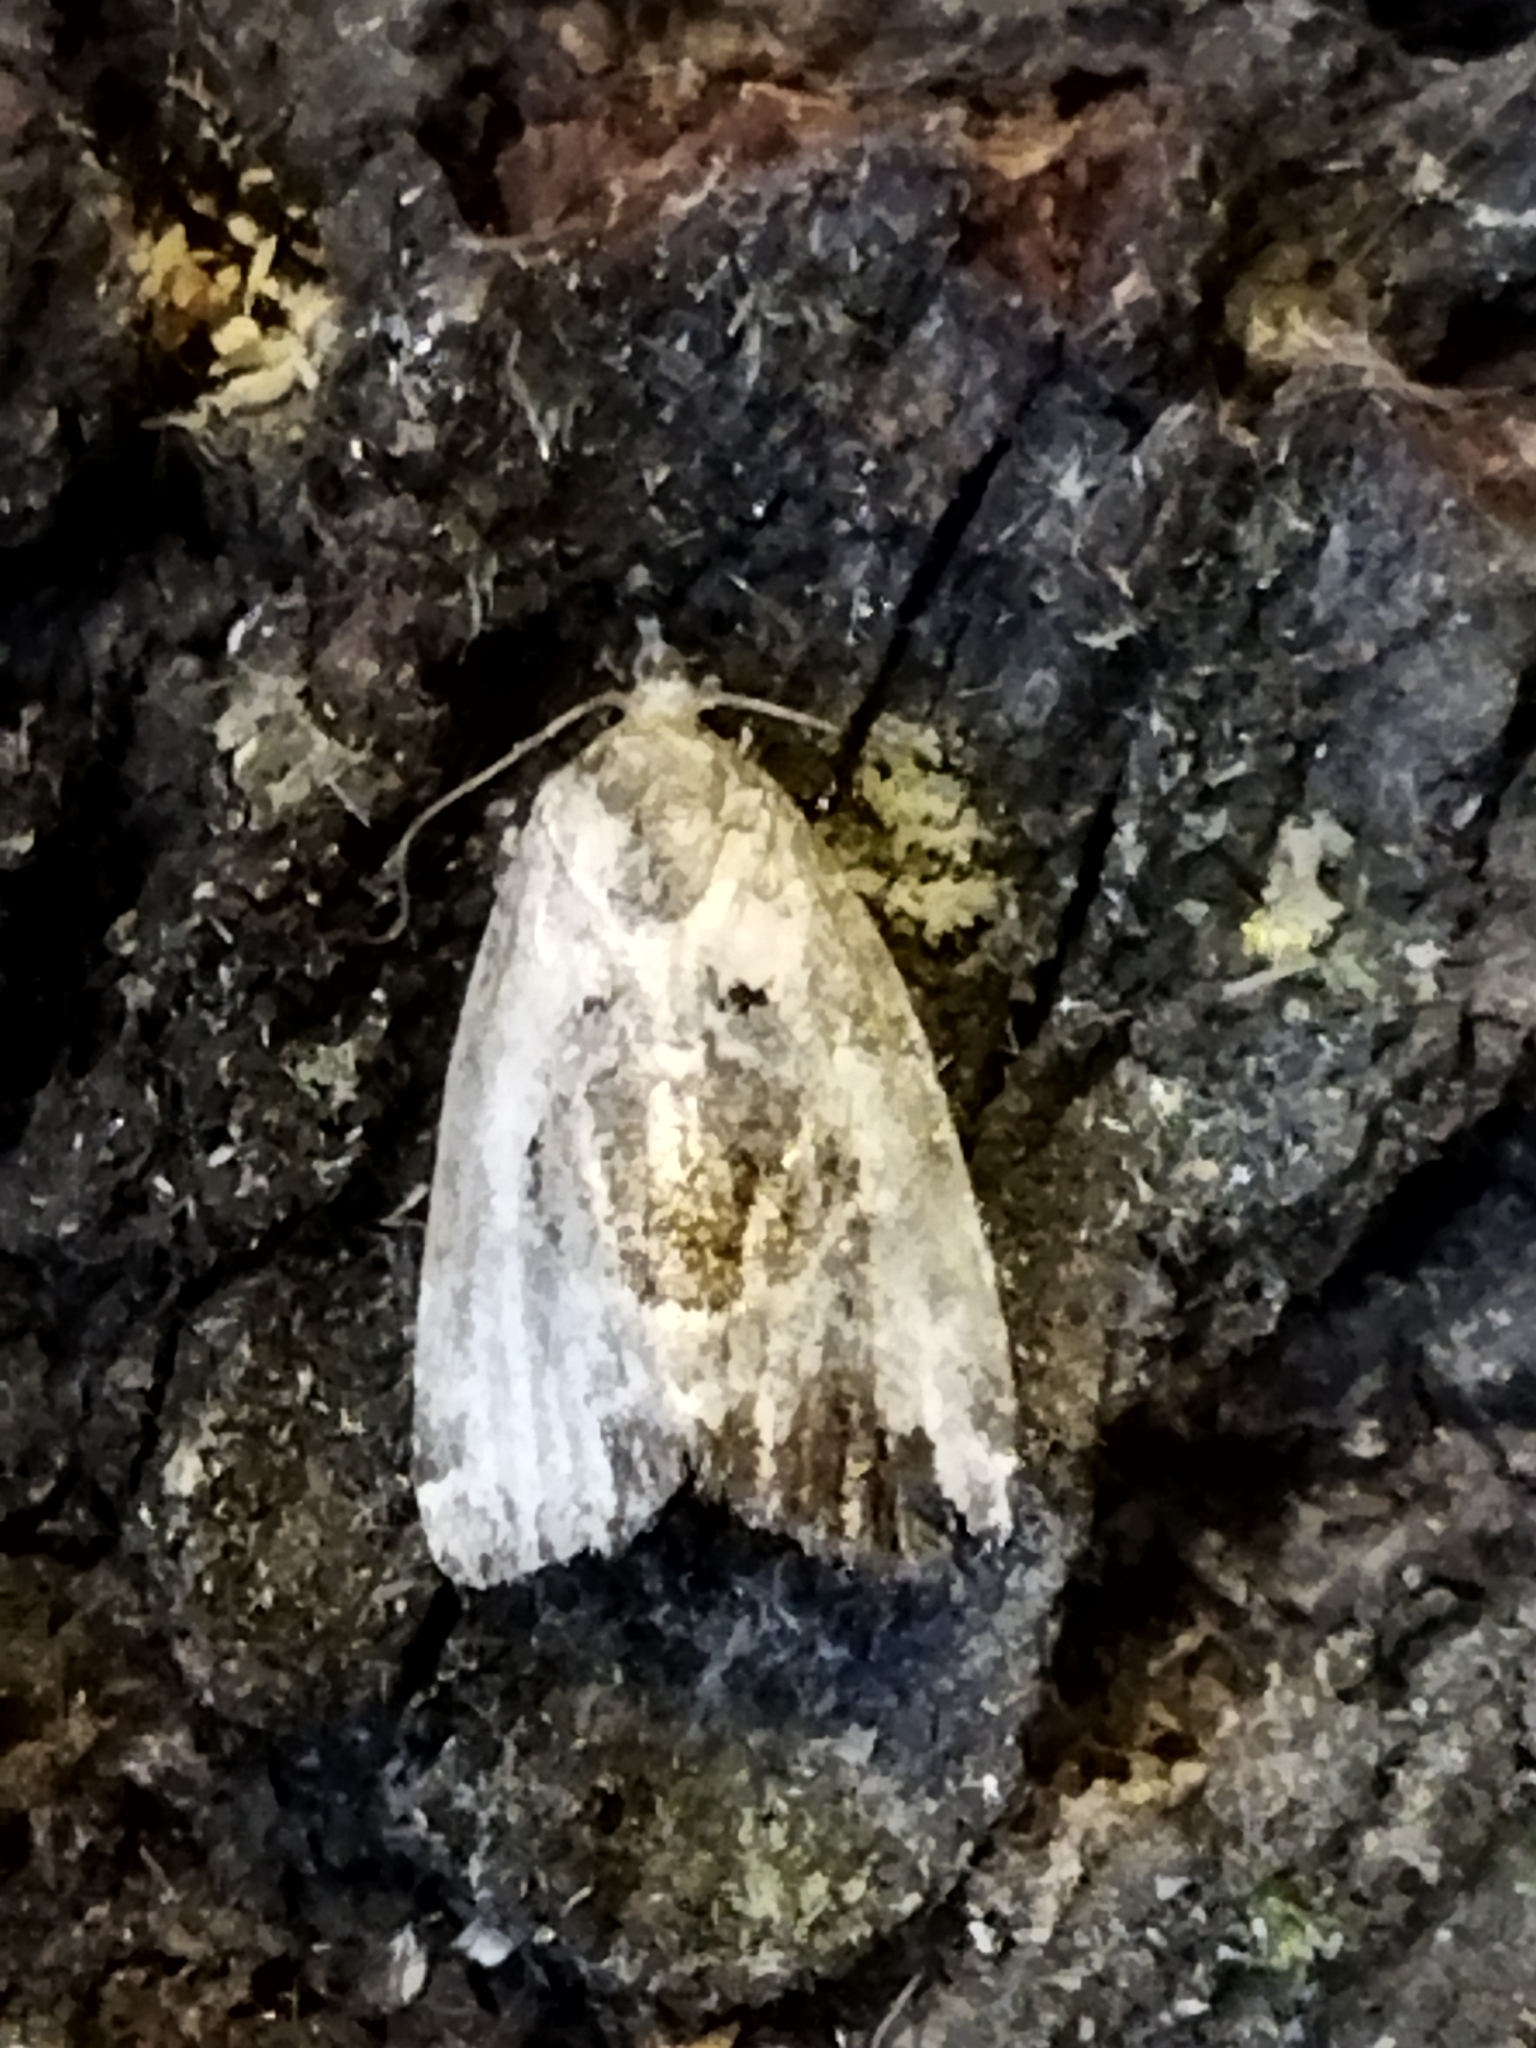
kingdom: Animalia
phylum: Arthropoda
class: Insecta
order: Lepidoptera
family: Noctuidae
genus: Elaphria
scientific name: Elaphria venustula
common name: Rosy marbled
